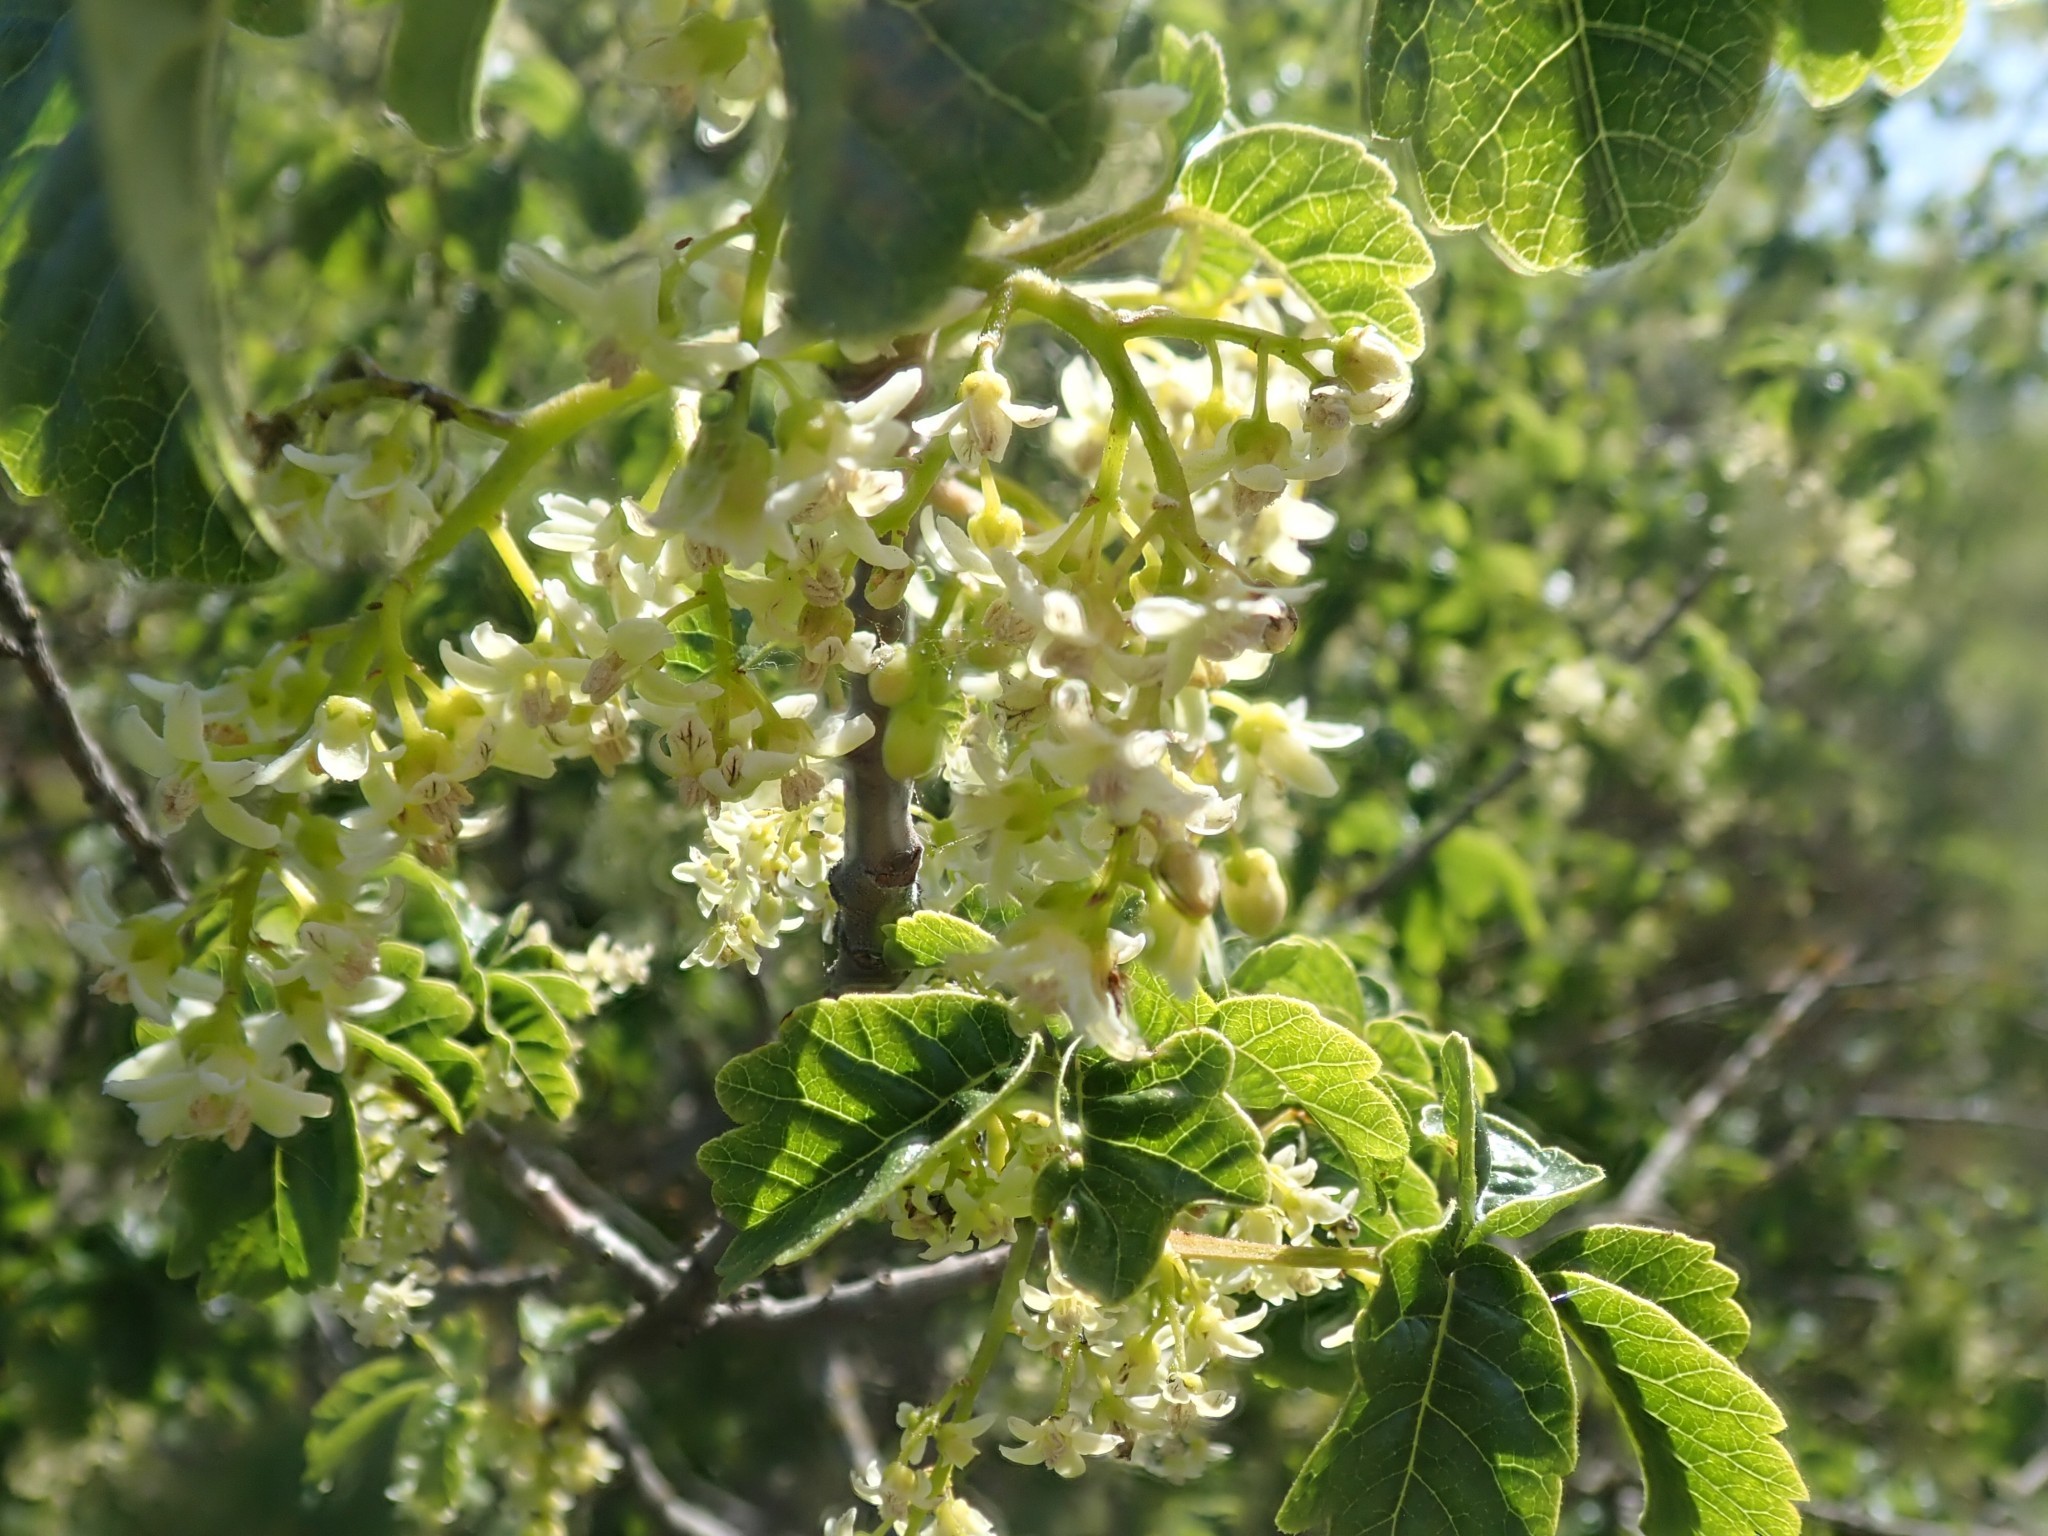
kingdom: Plantae
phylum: Tracheophyta
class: Magnoliopsida
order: Sapindales
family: Anacardiaceae
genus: Toxicodendron
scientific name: Toxicodendron diversilobum
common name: Pacific poison-oak
